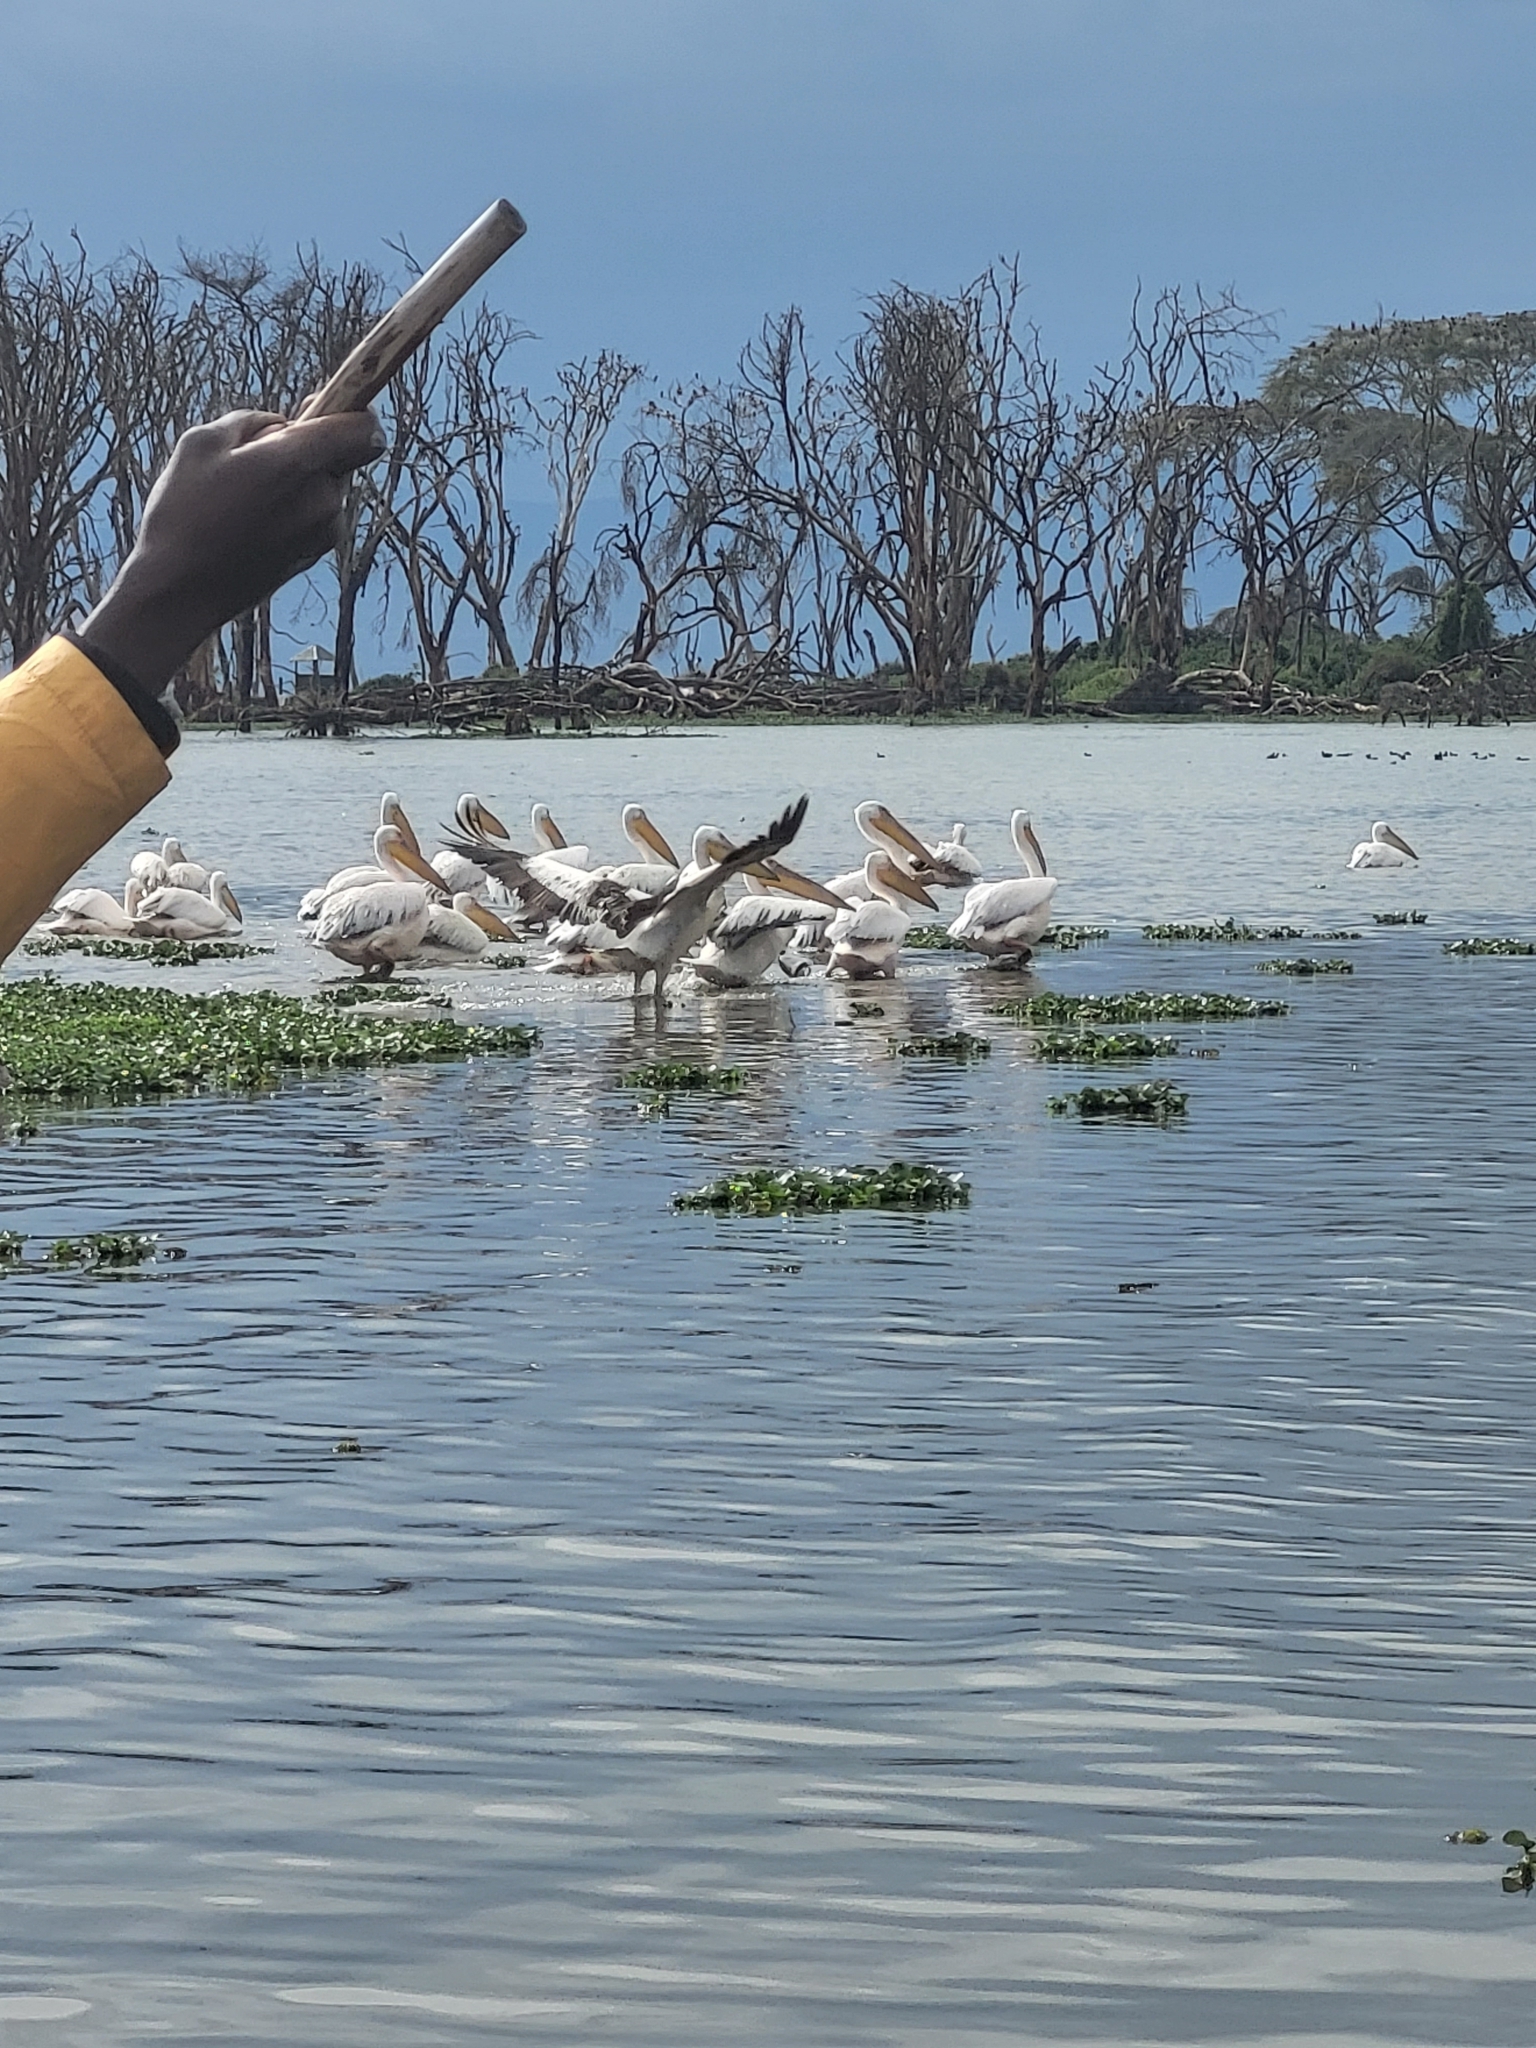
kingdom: Animalia
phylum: Chordata
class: Aves
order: Pelecaniformes
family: Pelecanidae
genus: Pelecanus
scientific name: Pelecanus onocrotalus
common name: Great white pelican
